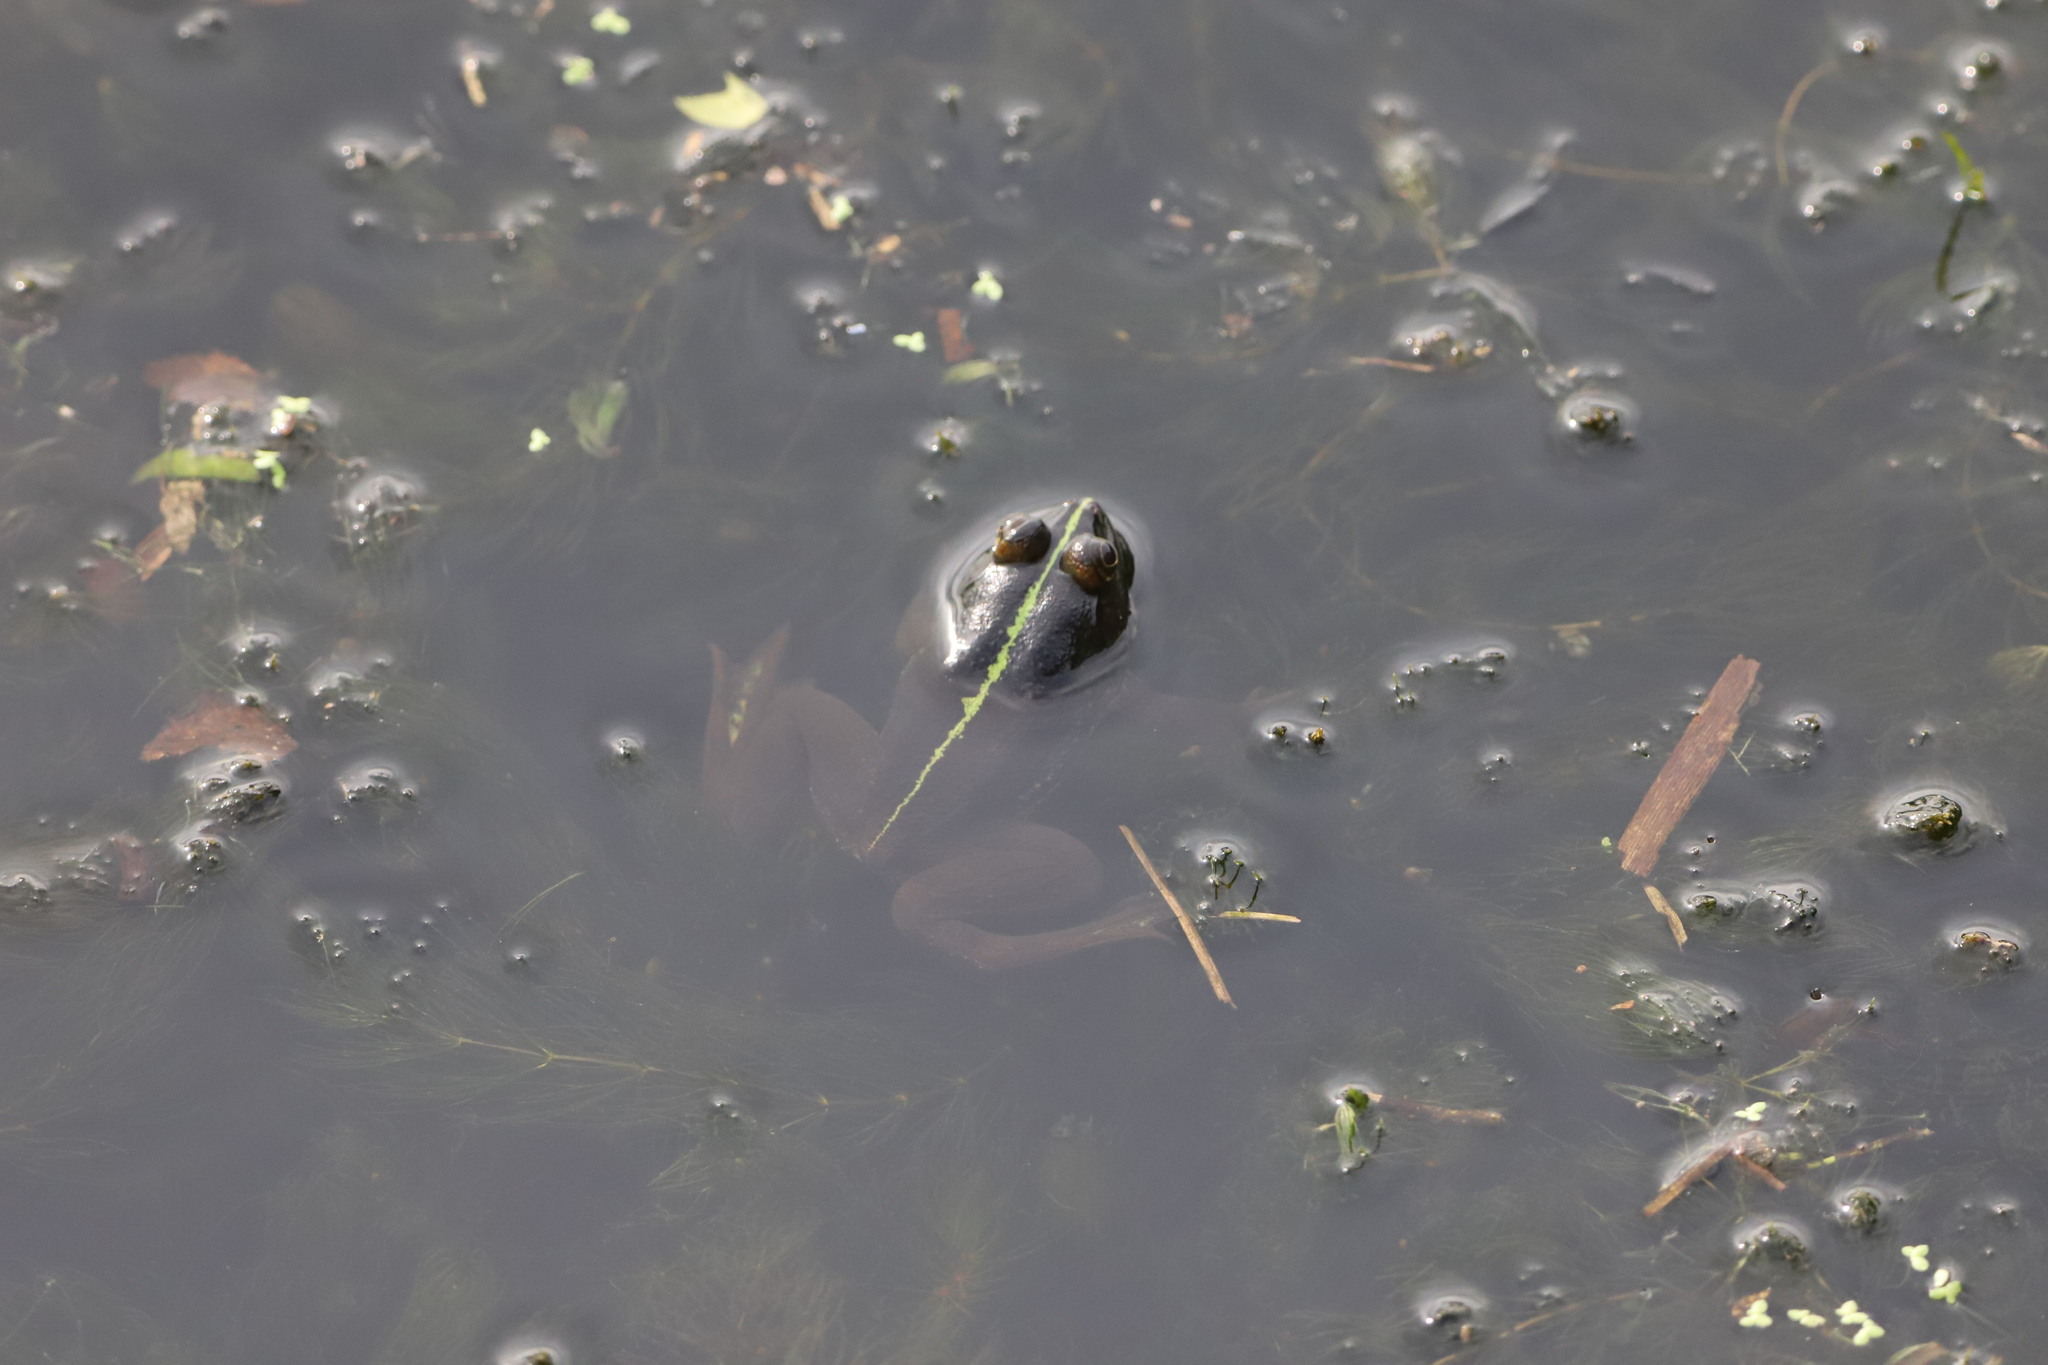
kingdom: Animalia
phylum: Chordata
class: Amphibia
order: Anura
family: Dicroglossidae
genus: Euphlyctis
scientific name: Euphlyctis hexadactylus
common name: Indian green frog
